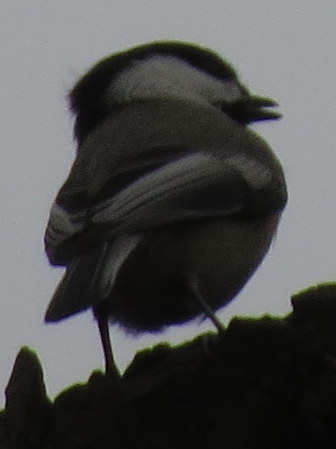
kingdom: Animalia
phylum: Chordata
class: Aves
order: Passeriformes
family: Paridae
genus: Poecile
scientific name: Poecile atricapillus
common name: Black-capped chickadee
